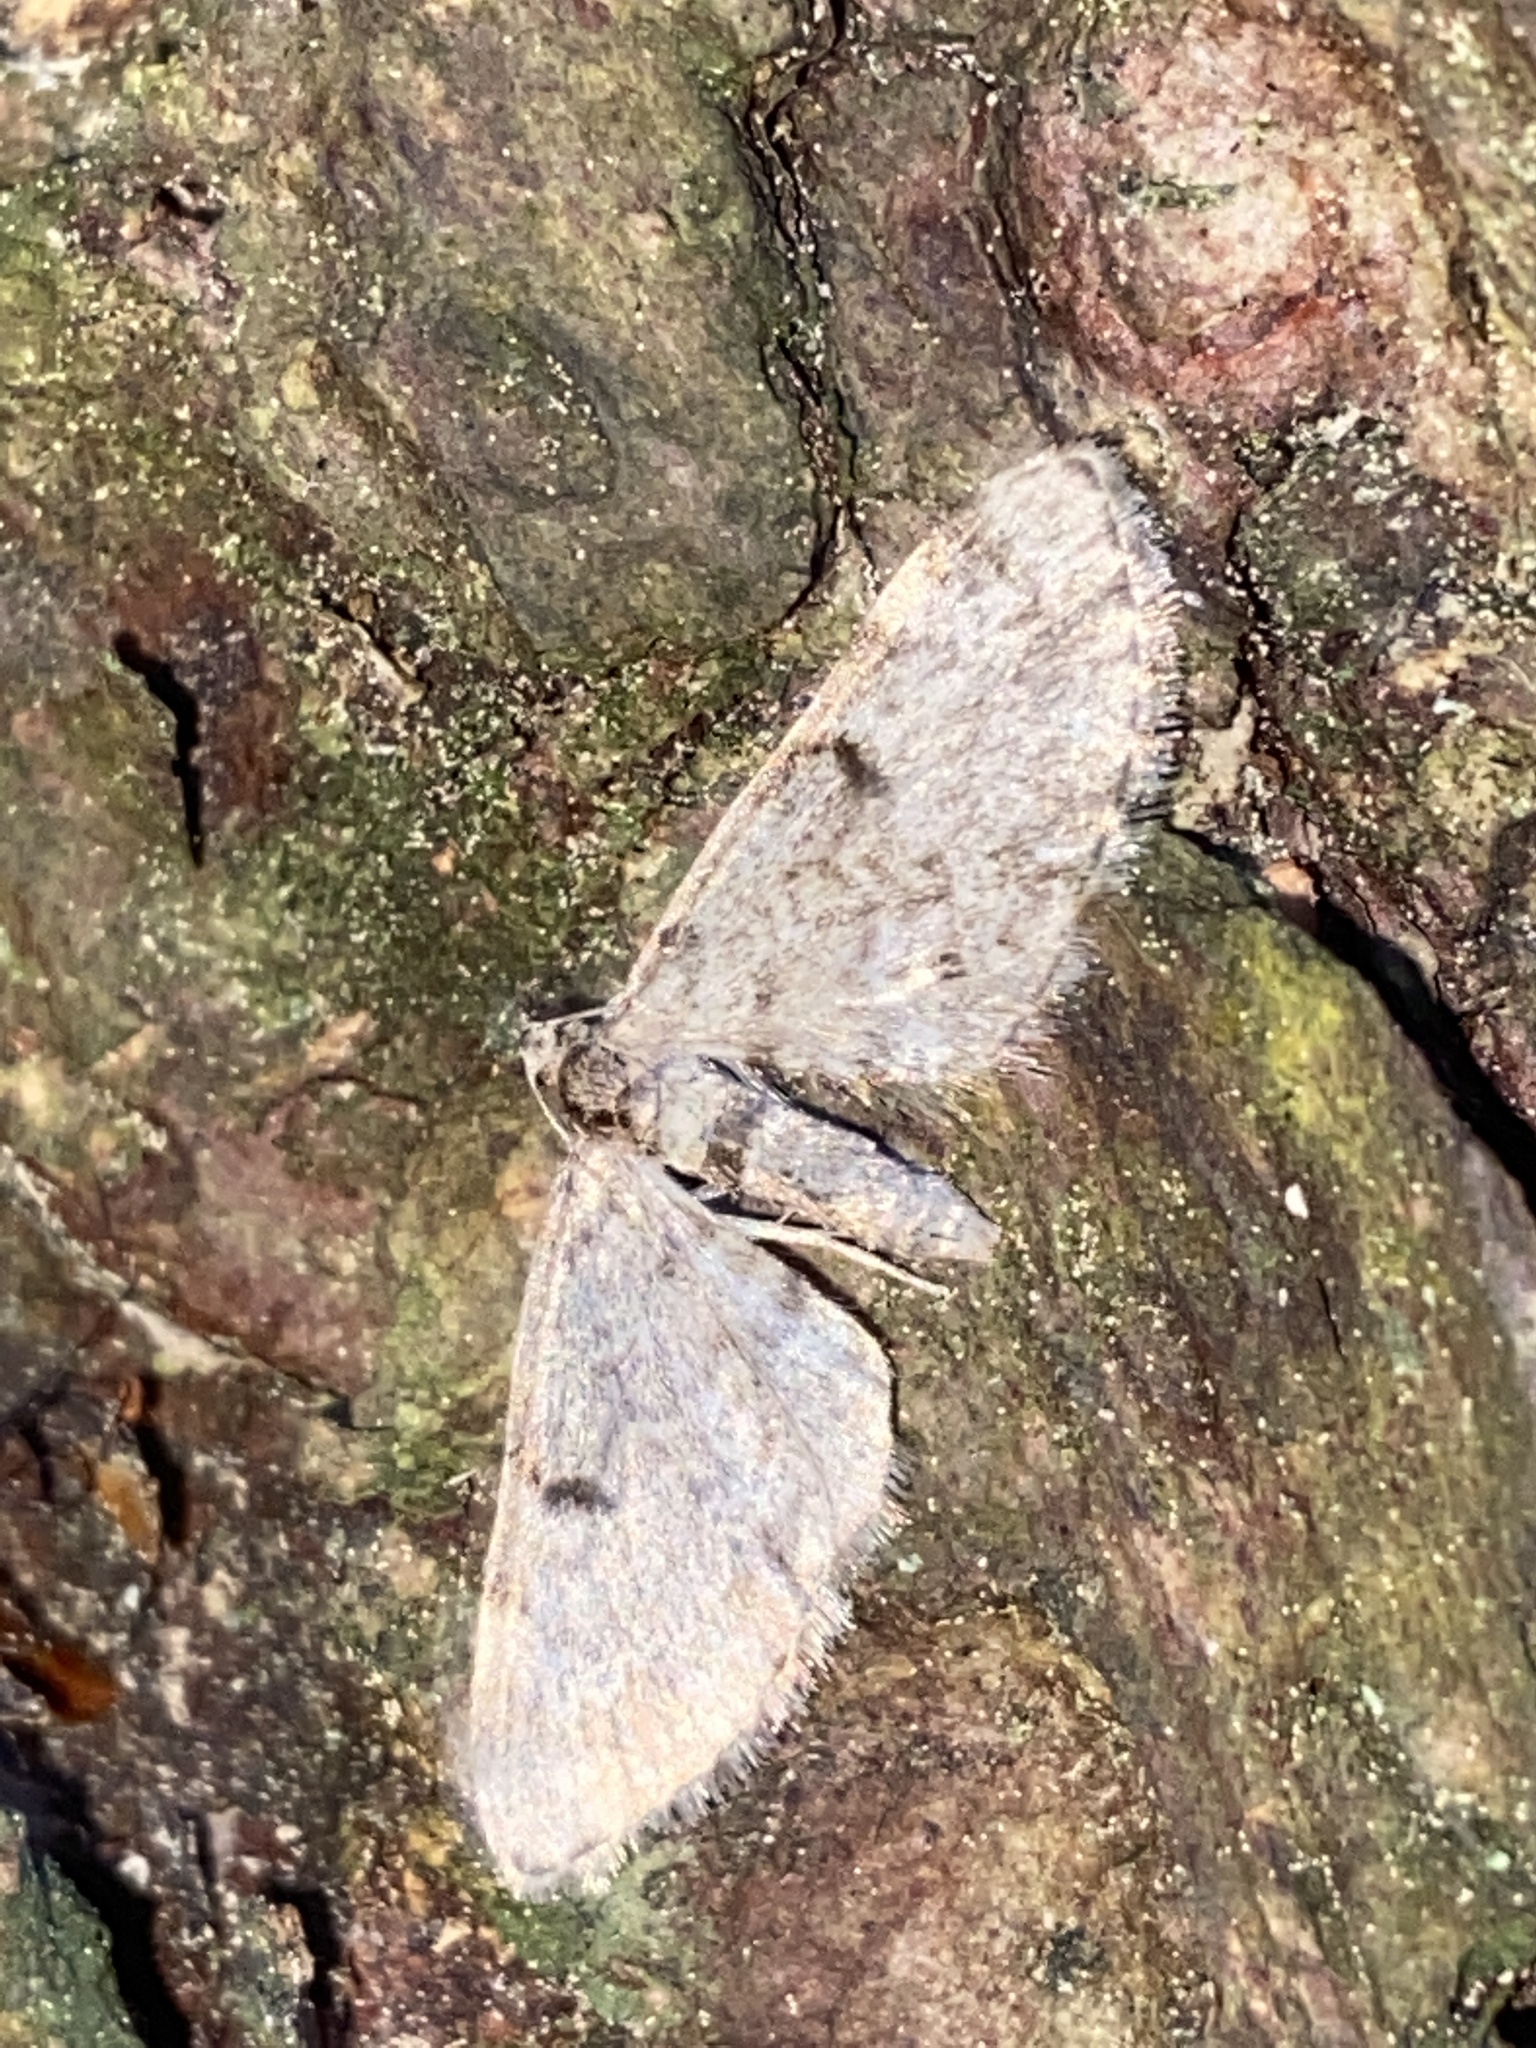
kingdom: Animalia
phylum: Arthropoda
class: Insecta
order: Lepidoptera
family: Geometridae
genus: Eupithecia
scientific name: Eupithecia tantillaria
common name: Dwarf pug
